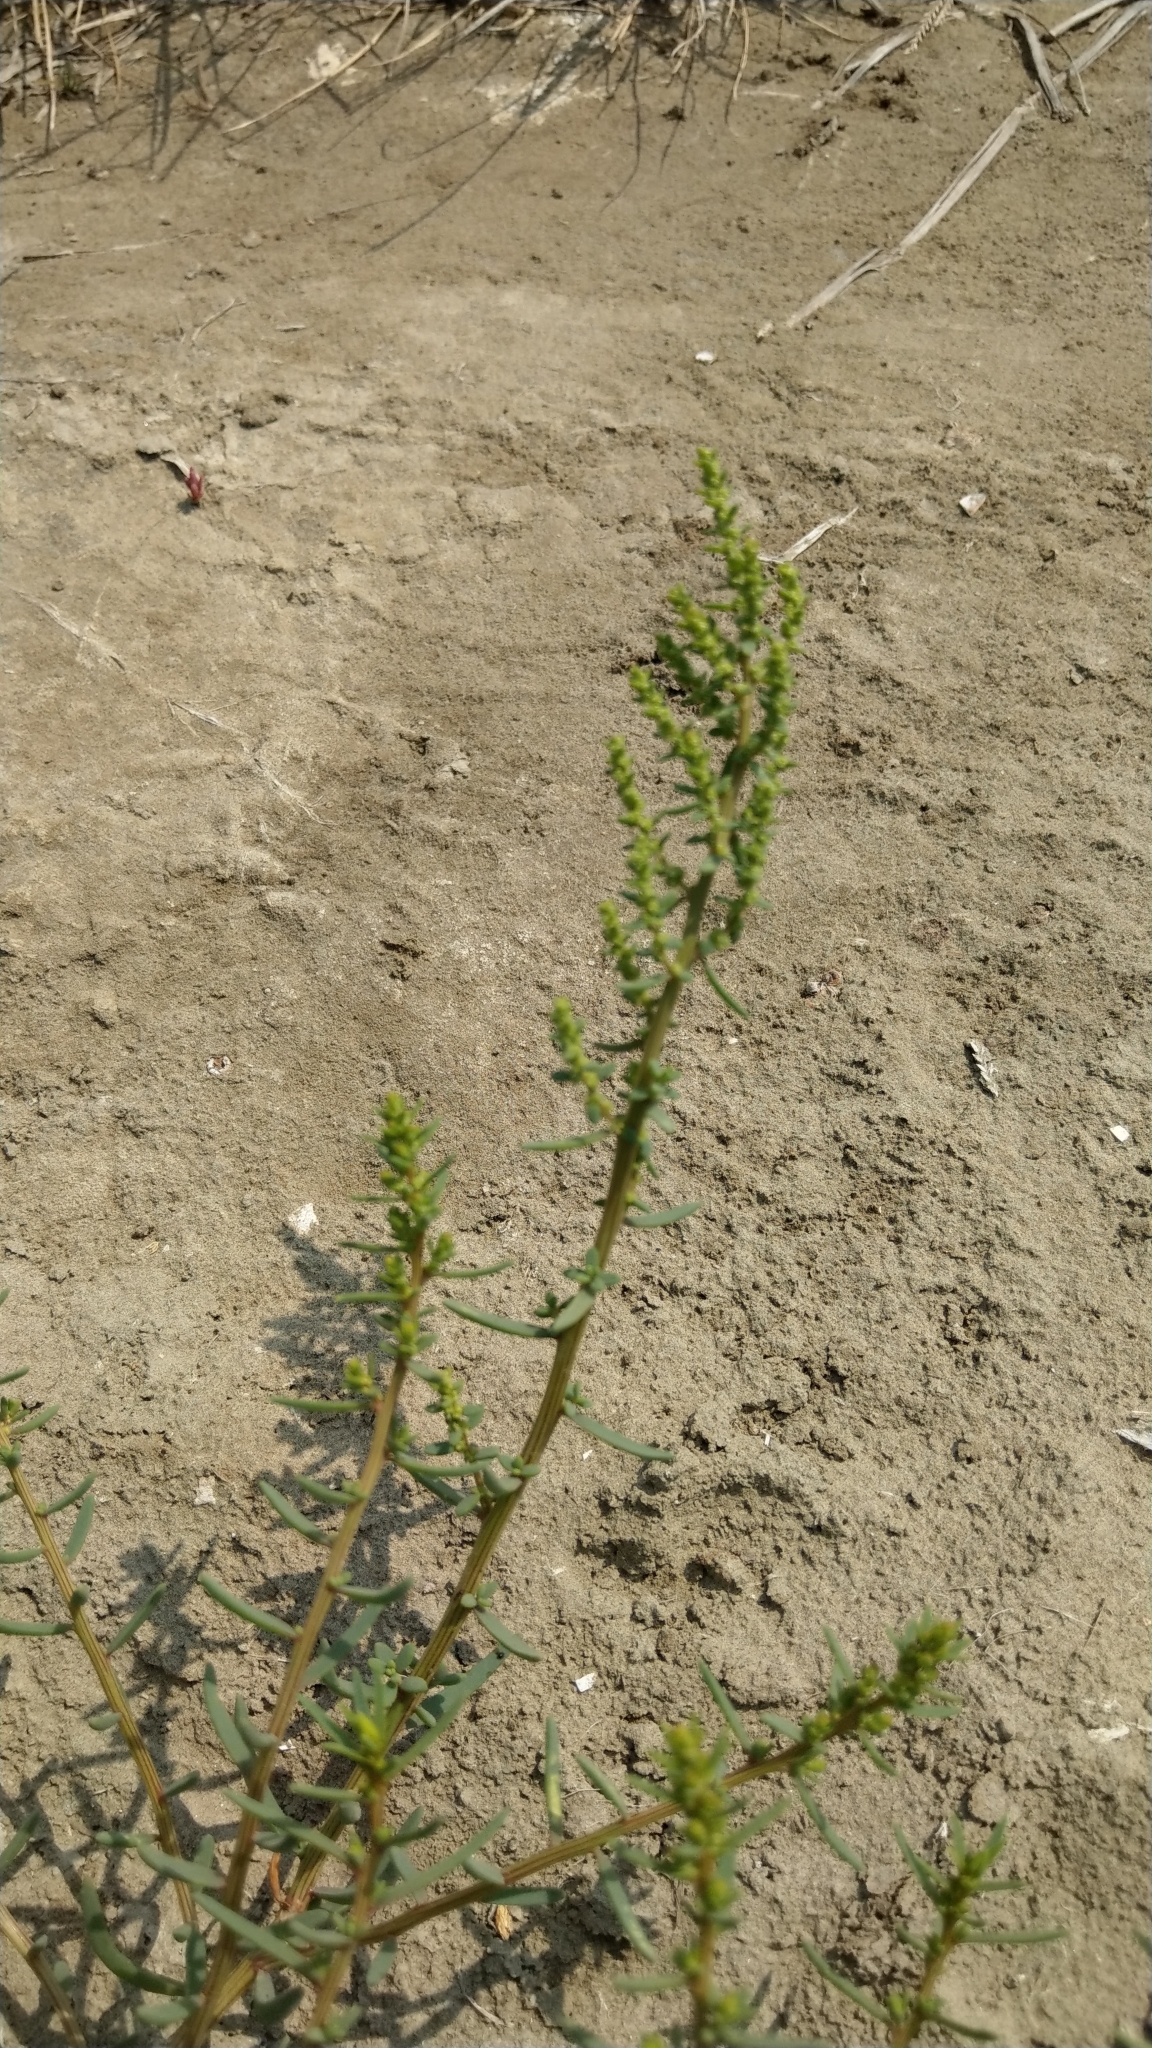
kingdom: Plantae
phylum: Tracheophyta
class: Magnoliopsida
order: Caryophyllales
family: Amaranthaceae
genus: Suaeda
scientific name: Suaeda maritima
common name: Annual sea-blite
